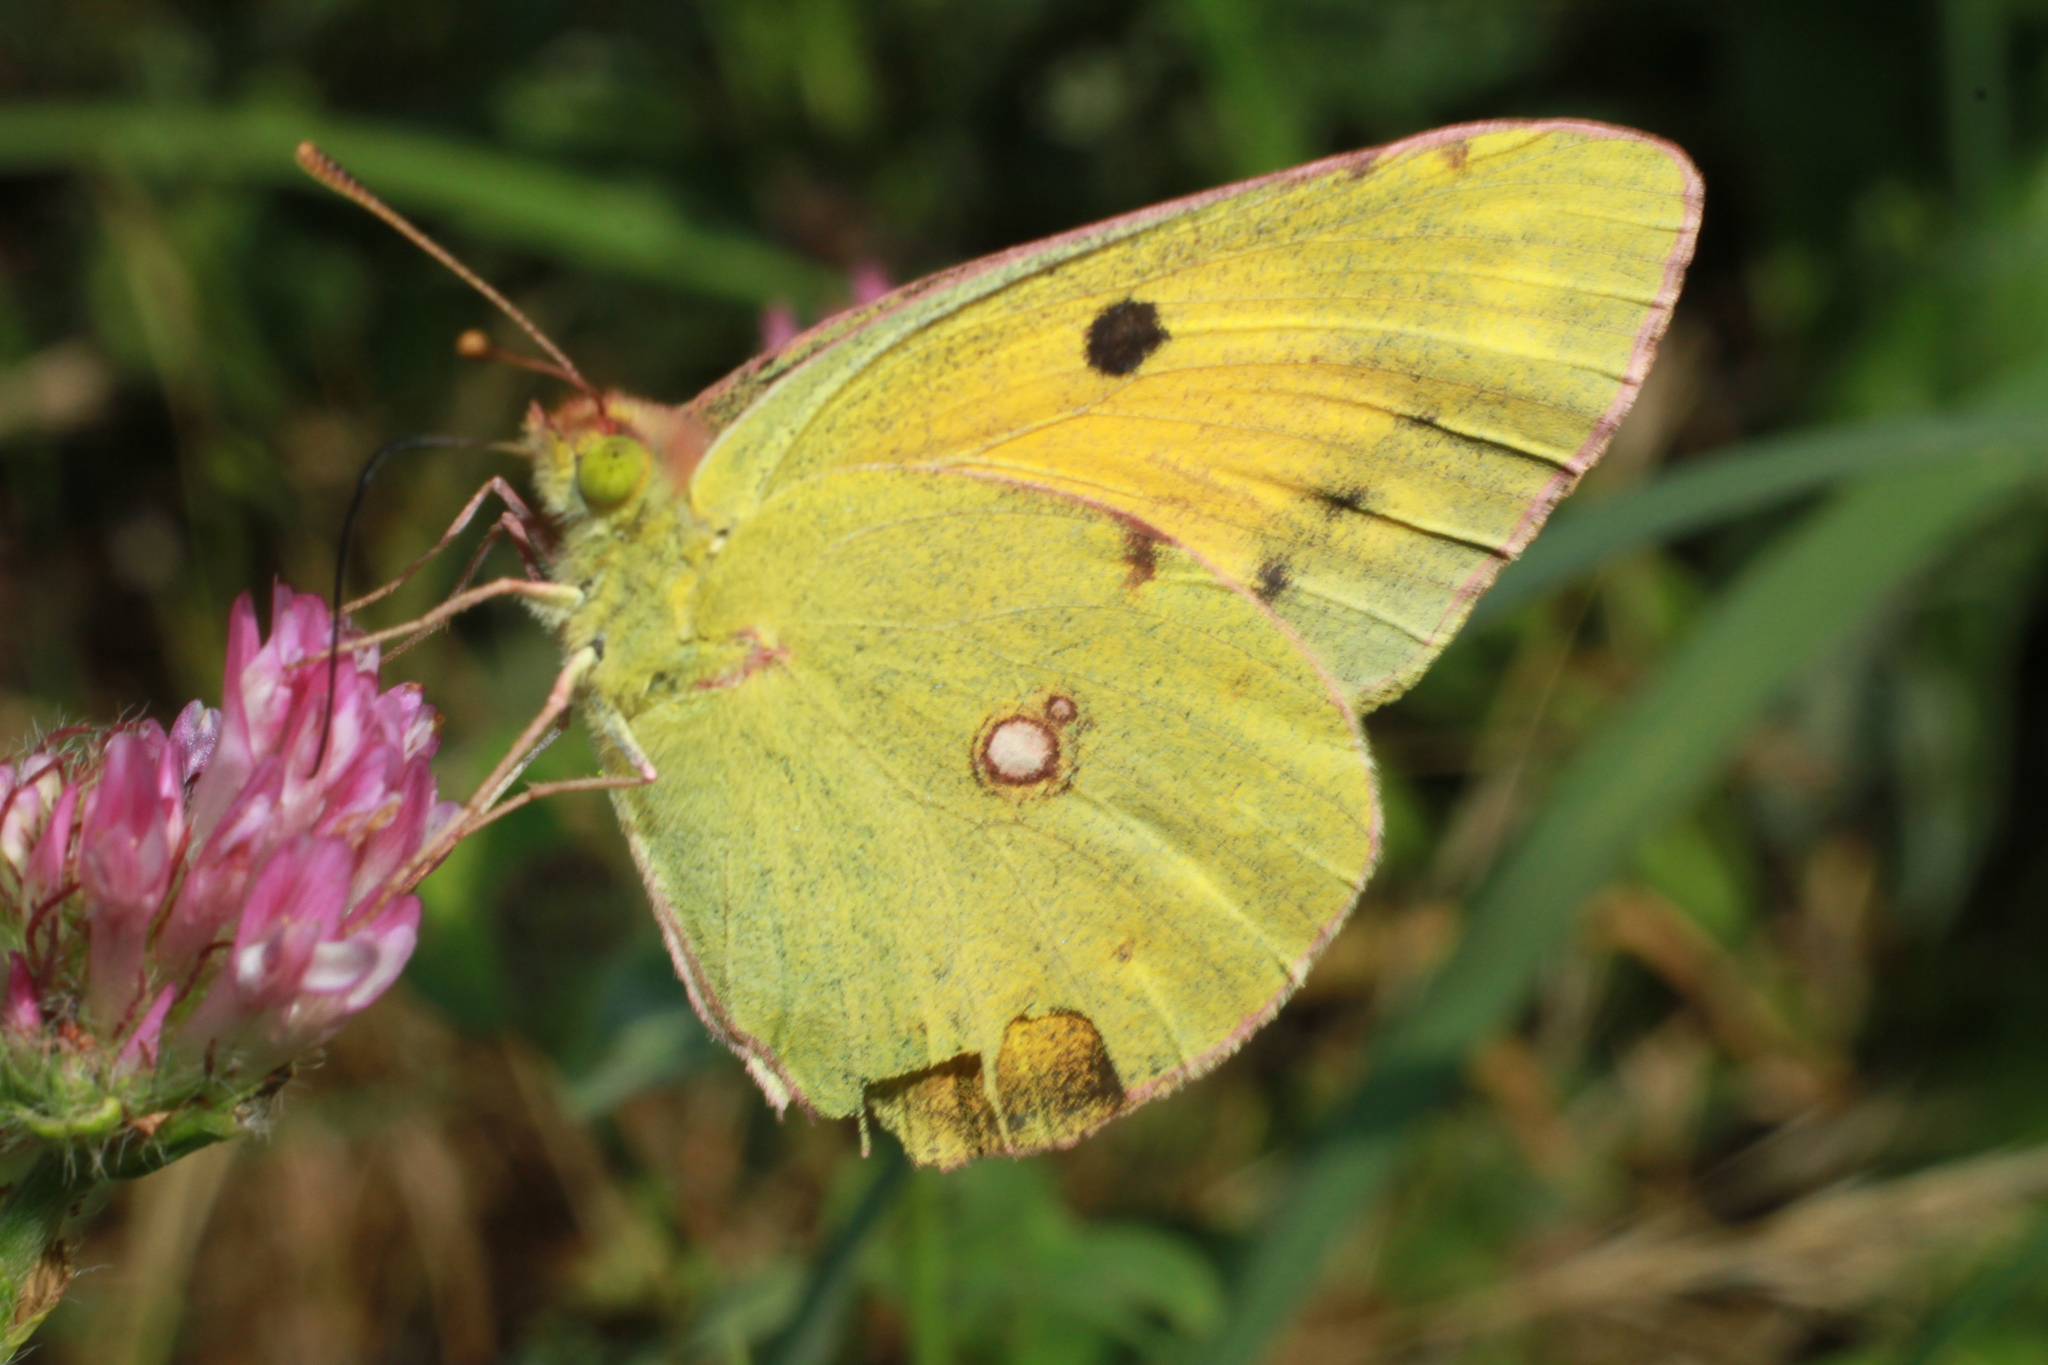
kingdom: Animalia
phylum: Arthropoda
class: Insecta
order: Lepidoptera
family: Pieridae
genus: Colias
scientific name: Colias croceus
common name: Clouded yellow
